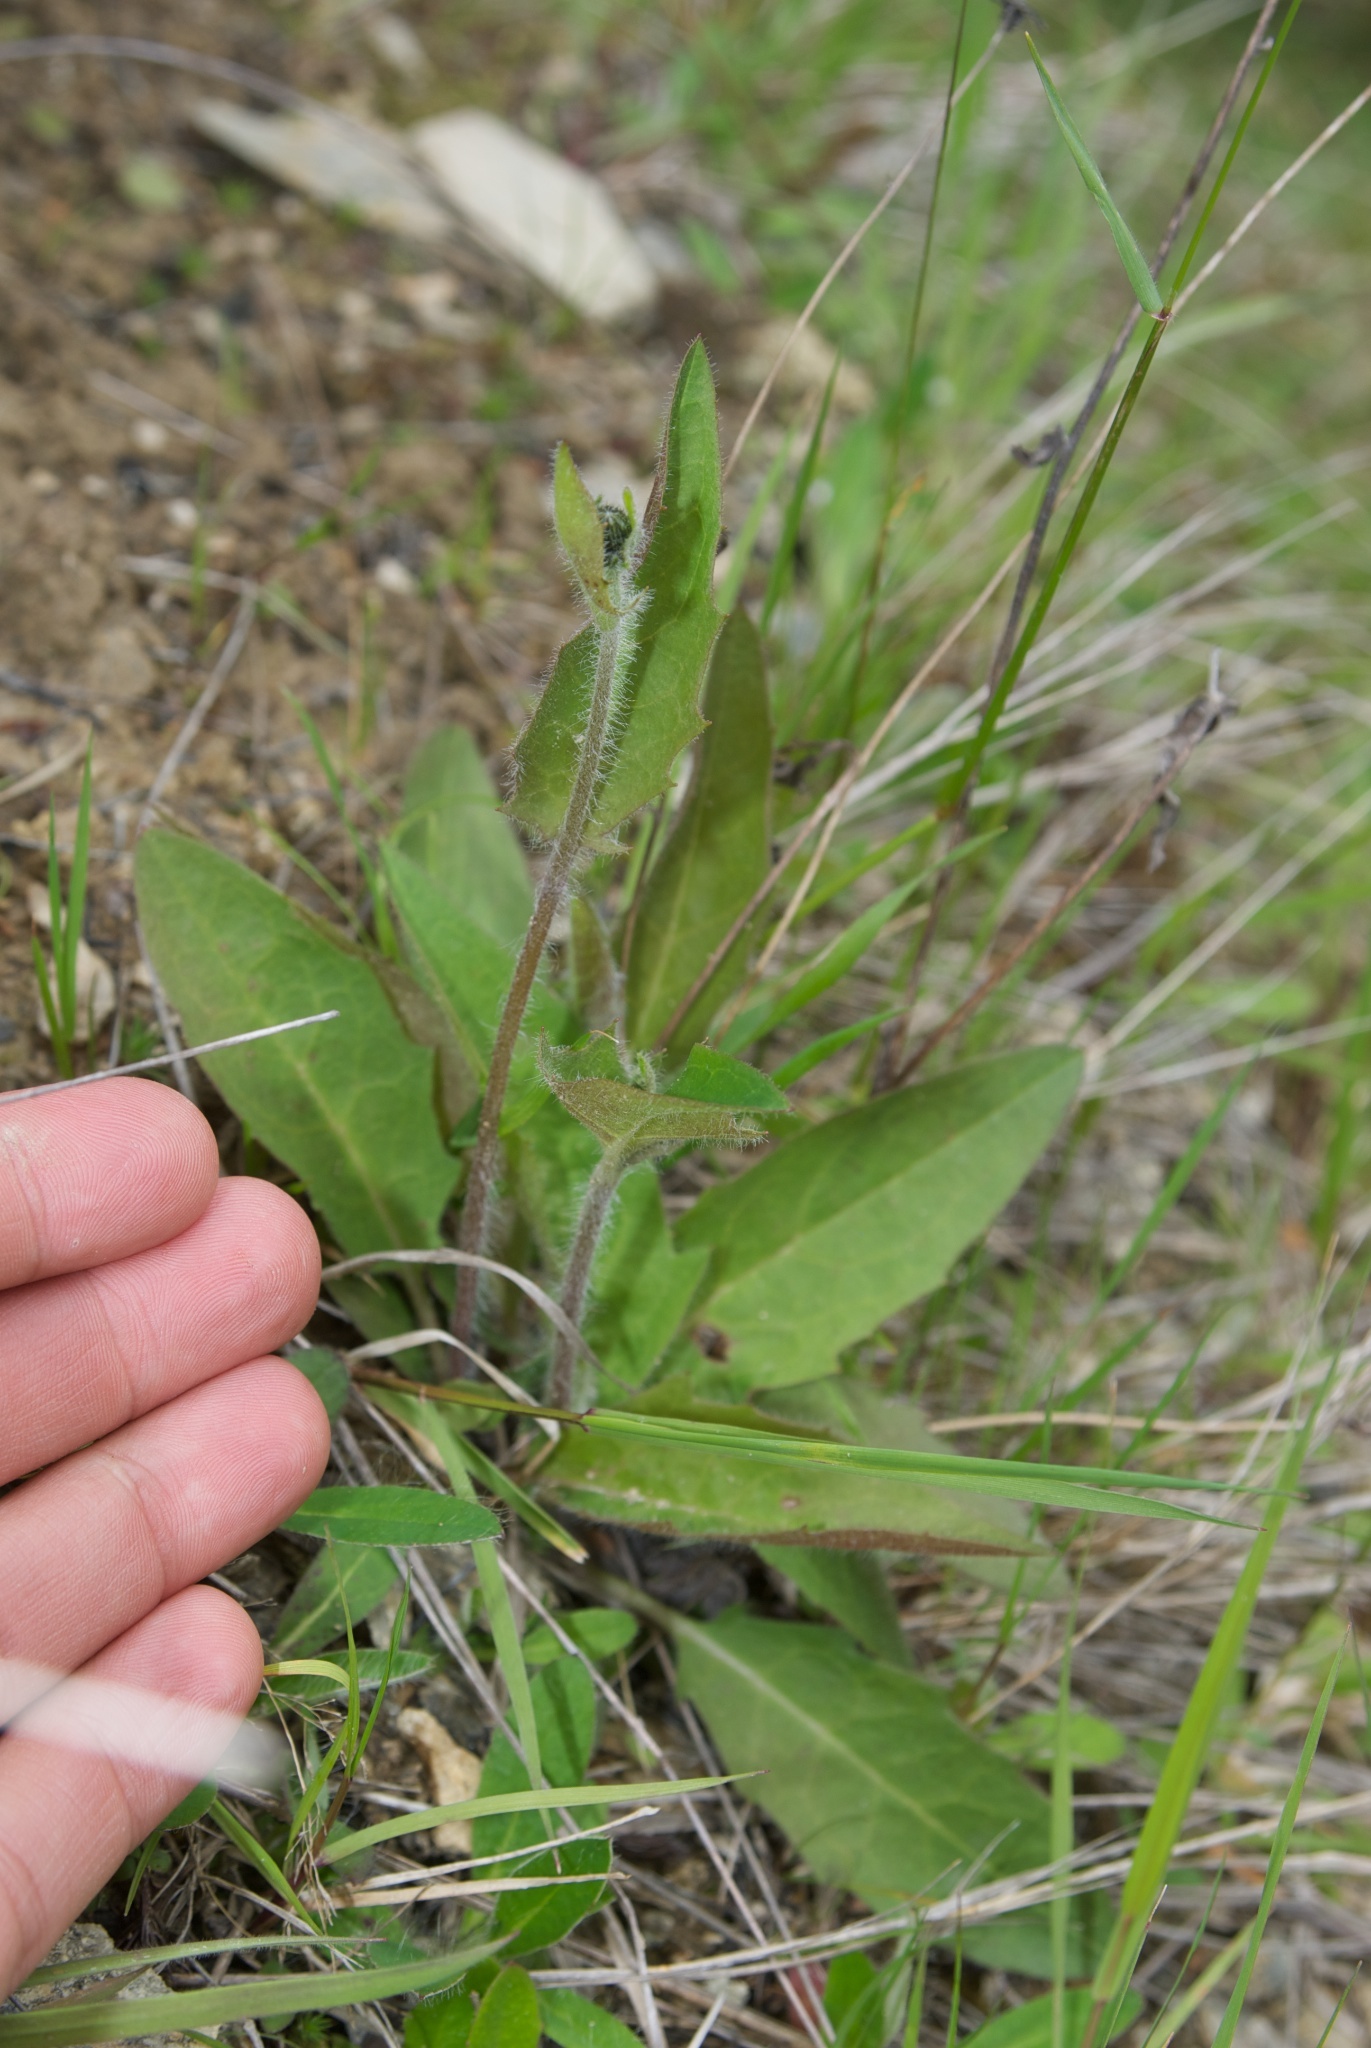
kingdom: Plantae
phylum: Tracheophyta
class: Magnoliopsida
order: Asterales
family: Asteraceae
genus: Hieracium
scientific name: Hieracium lepidulum
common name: Irregular-toothed hawkweed
